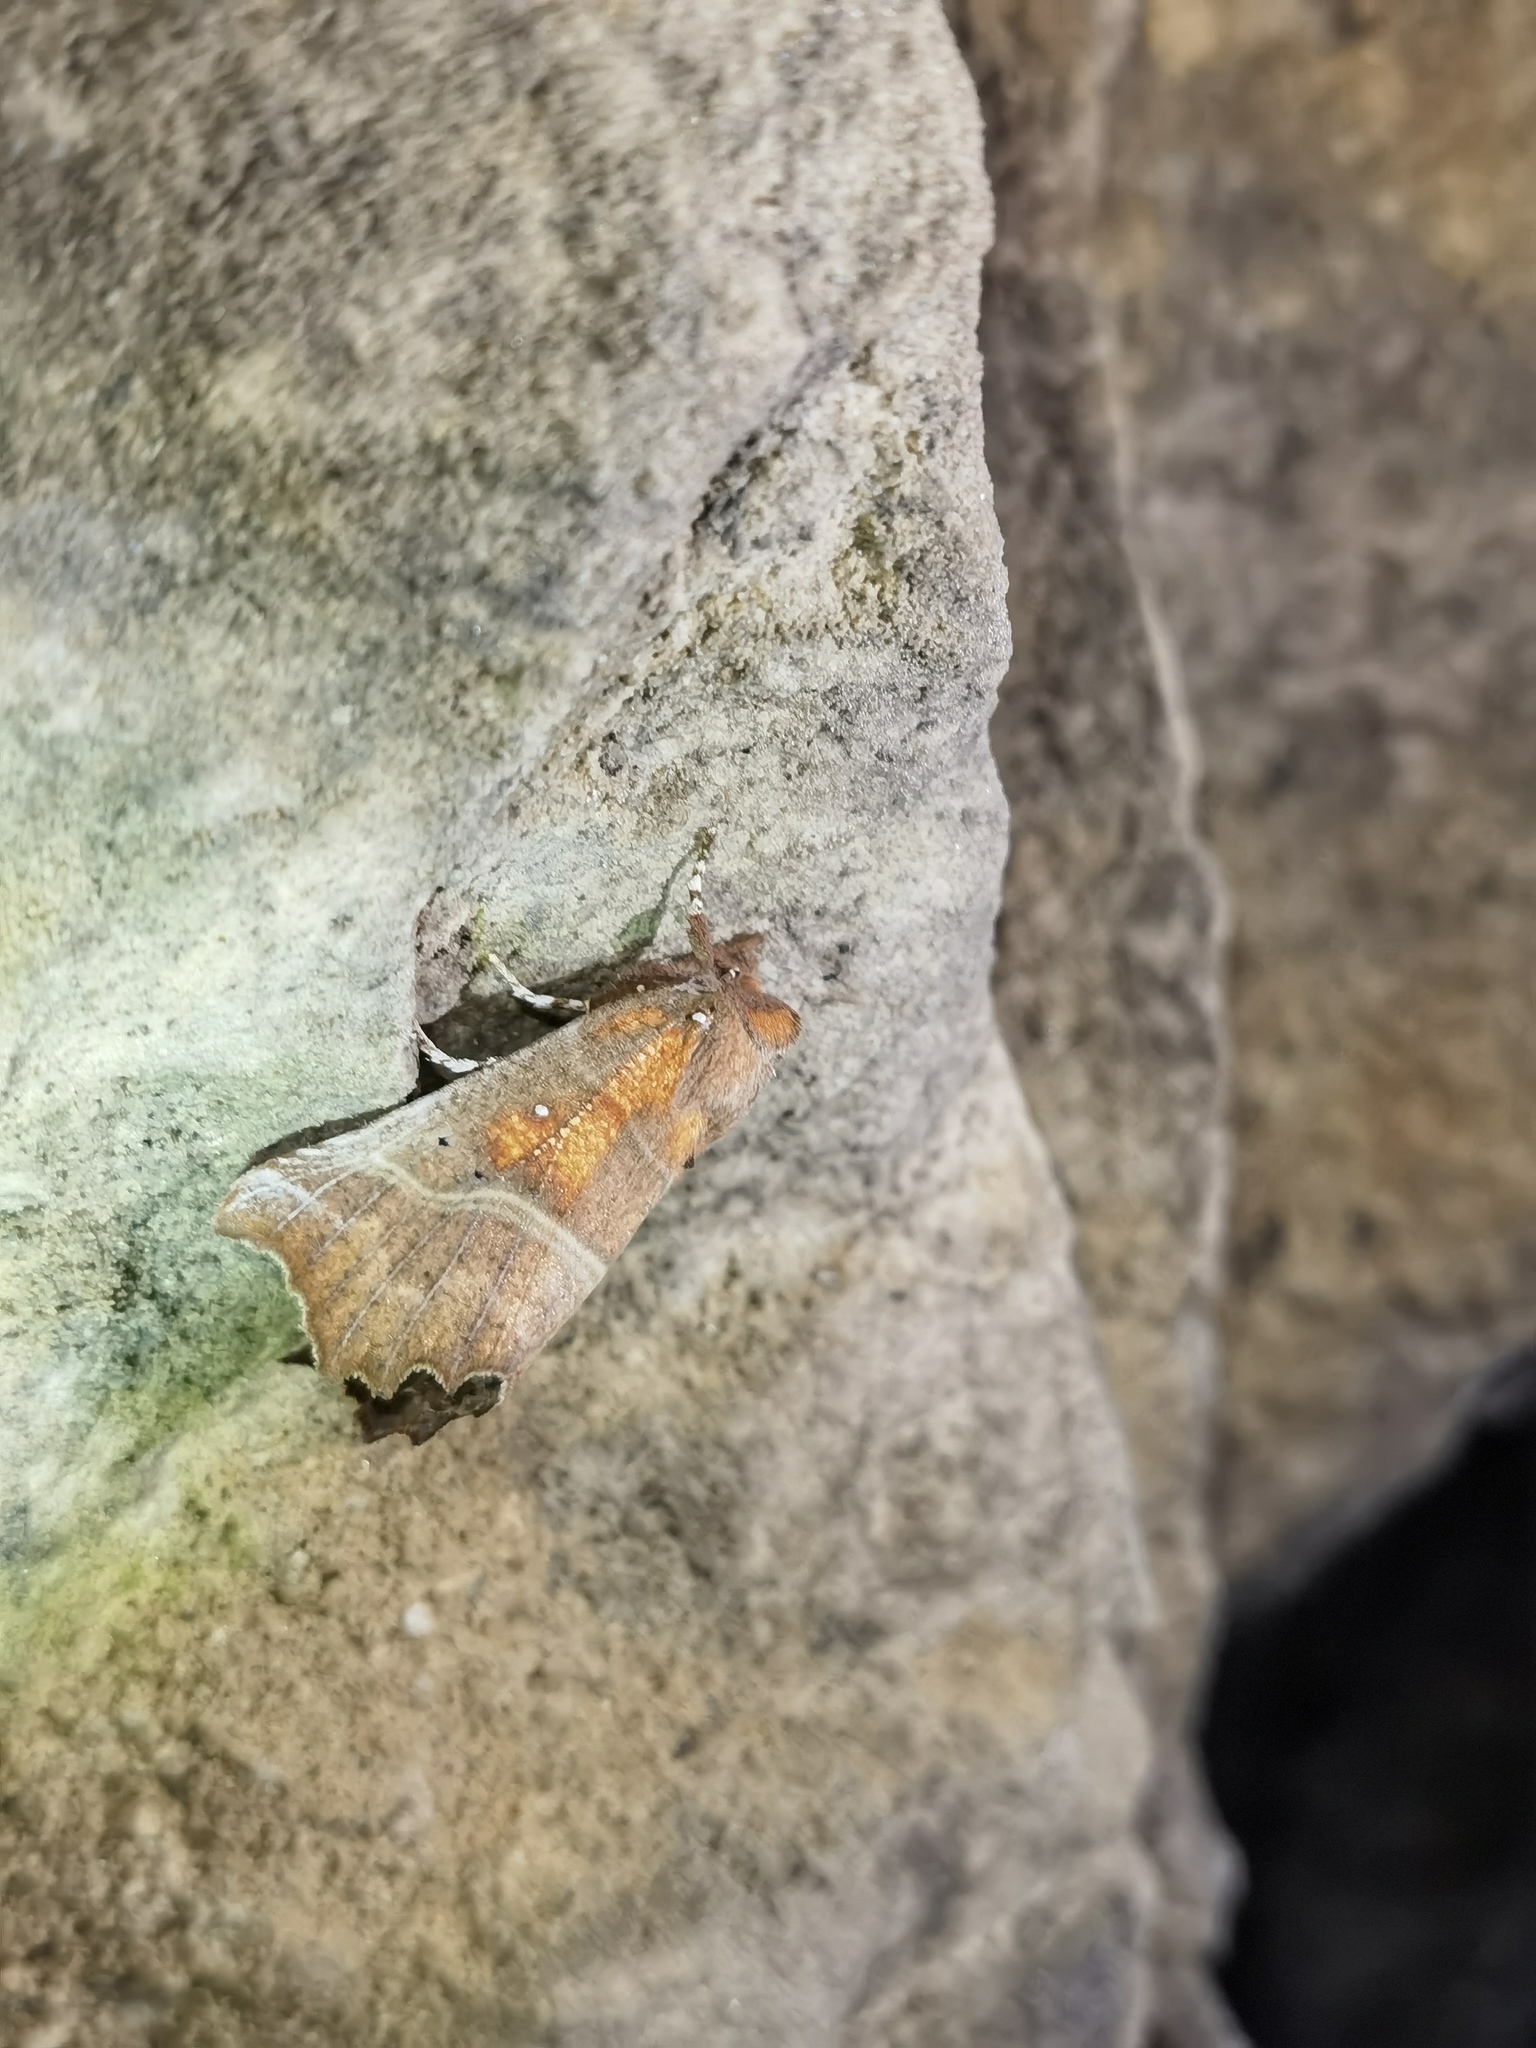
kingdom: Animalia
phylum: Arthropoda
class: Insecta
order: Lepidoptera
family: Erebidae
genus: Scoliopteryx
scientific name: Scoliopteryx libatrix
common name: Herald
